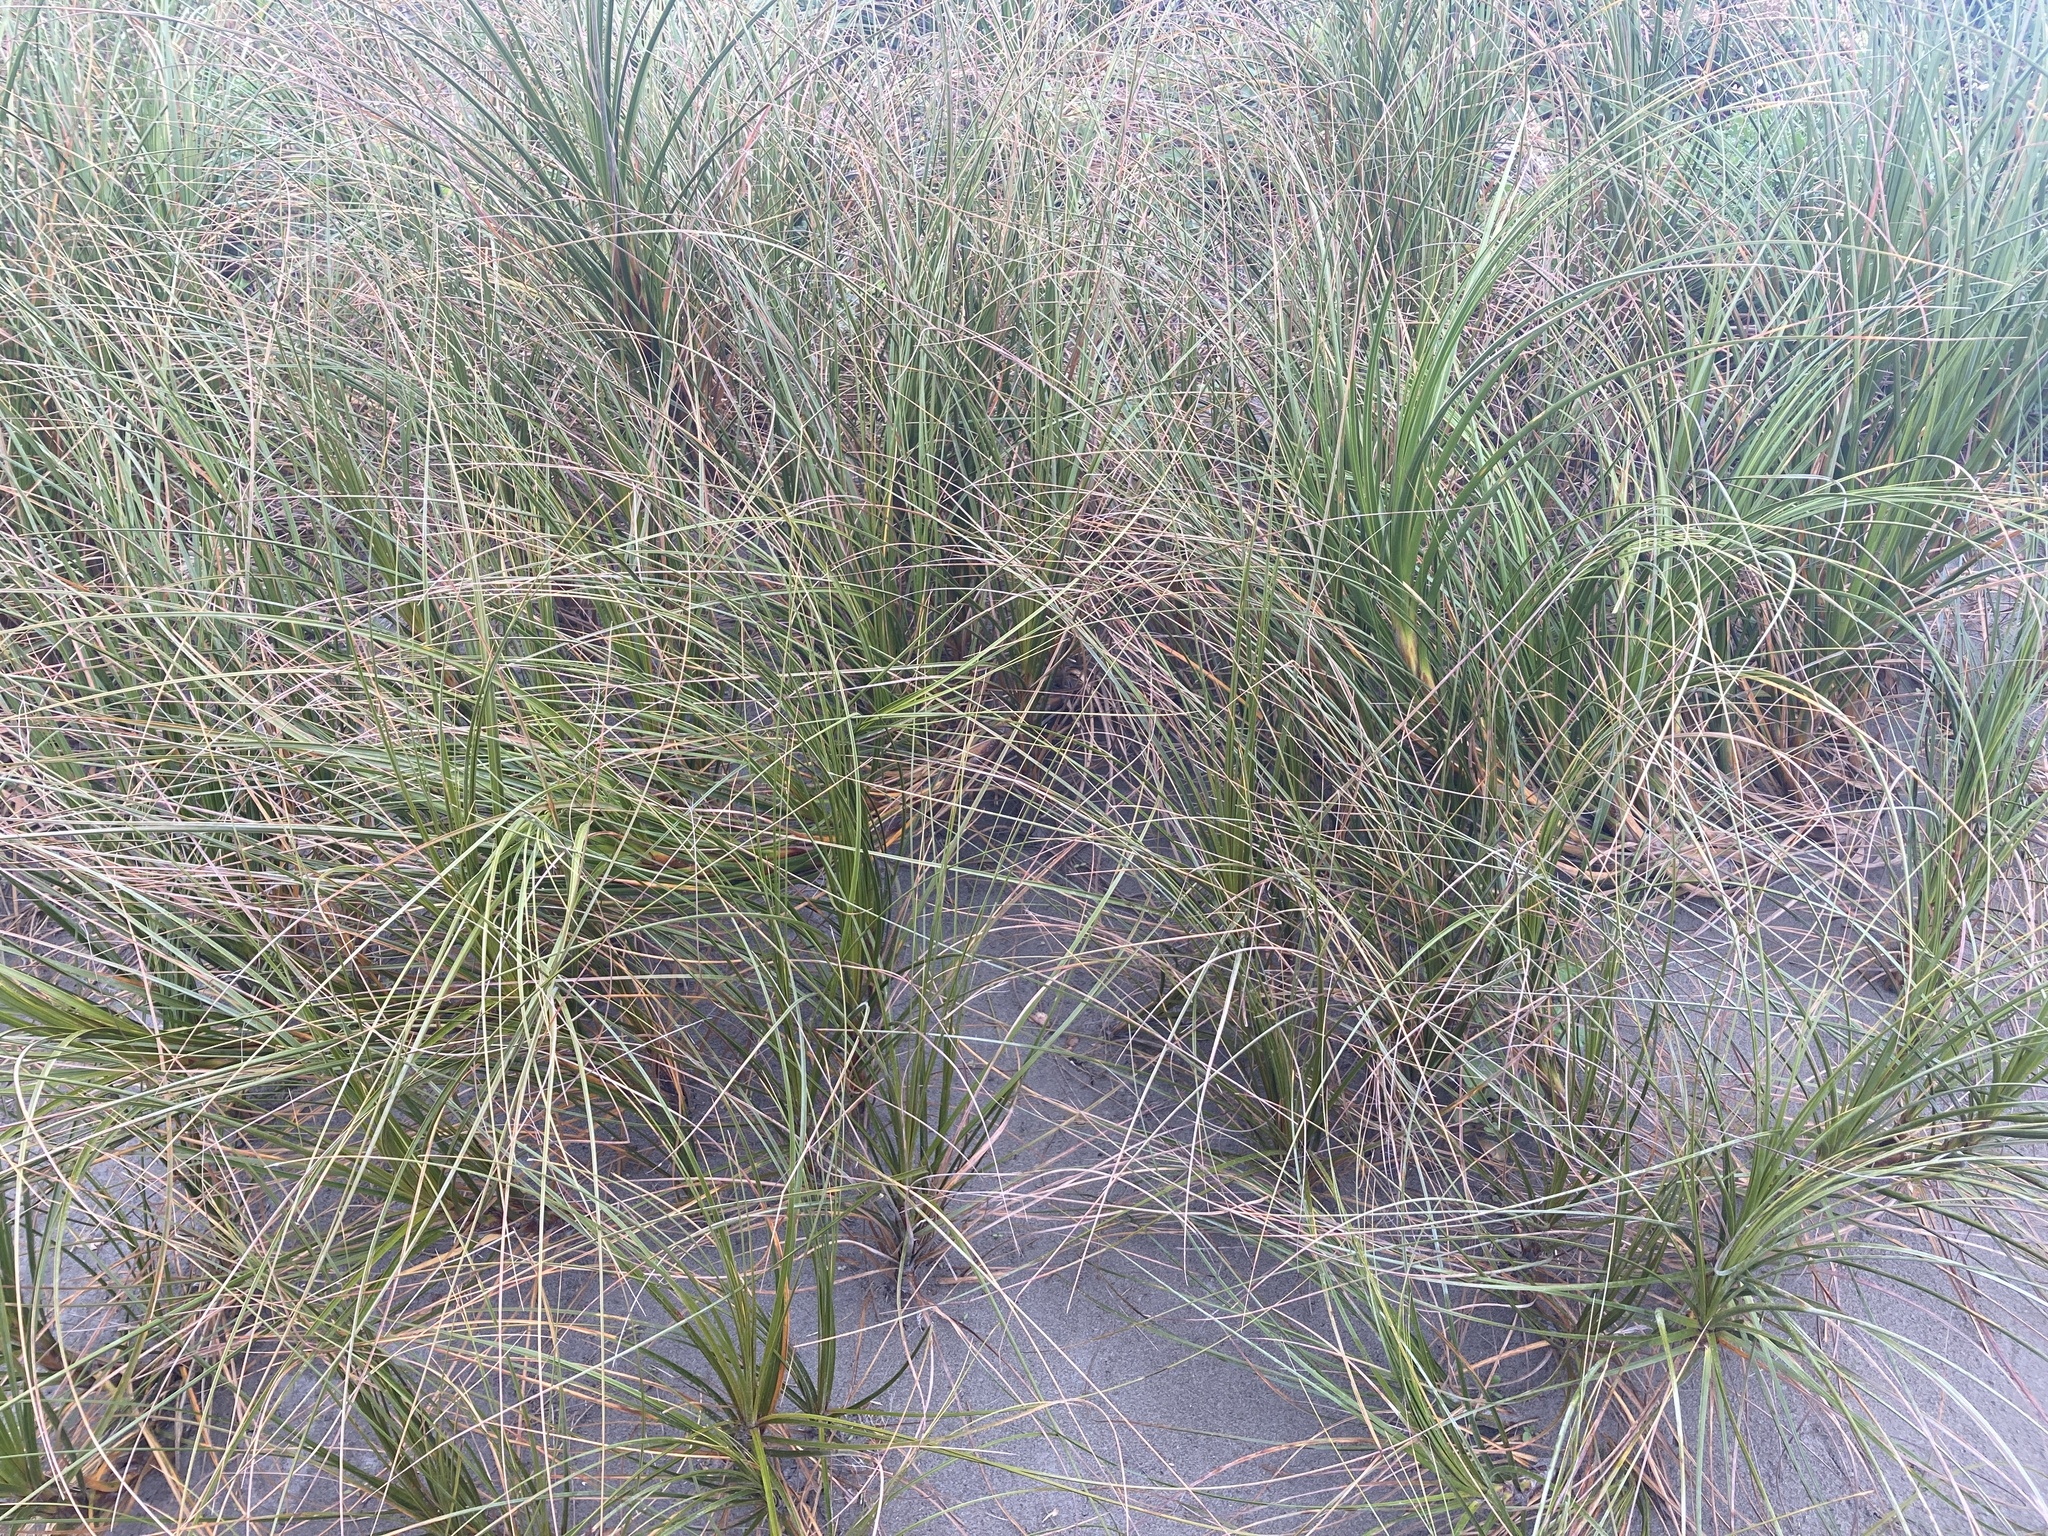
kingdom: Plantae
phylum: Tracheophyta
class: Liliopsida
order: Poales
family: Cyperaceae
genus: Ficinia
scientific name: Ficinia spiralis
